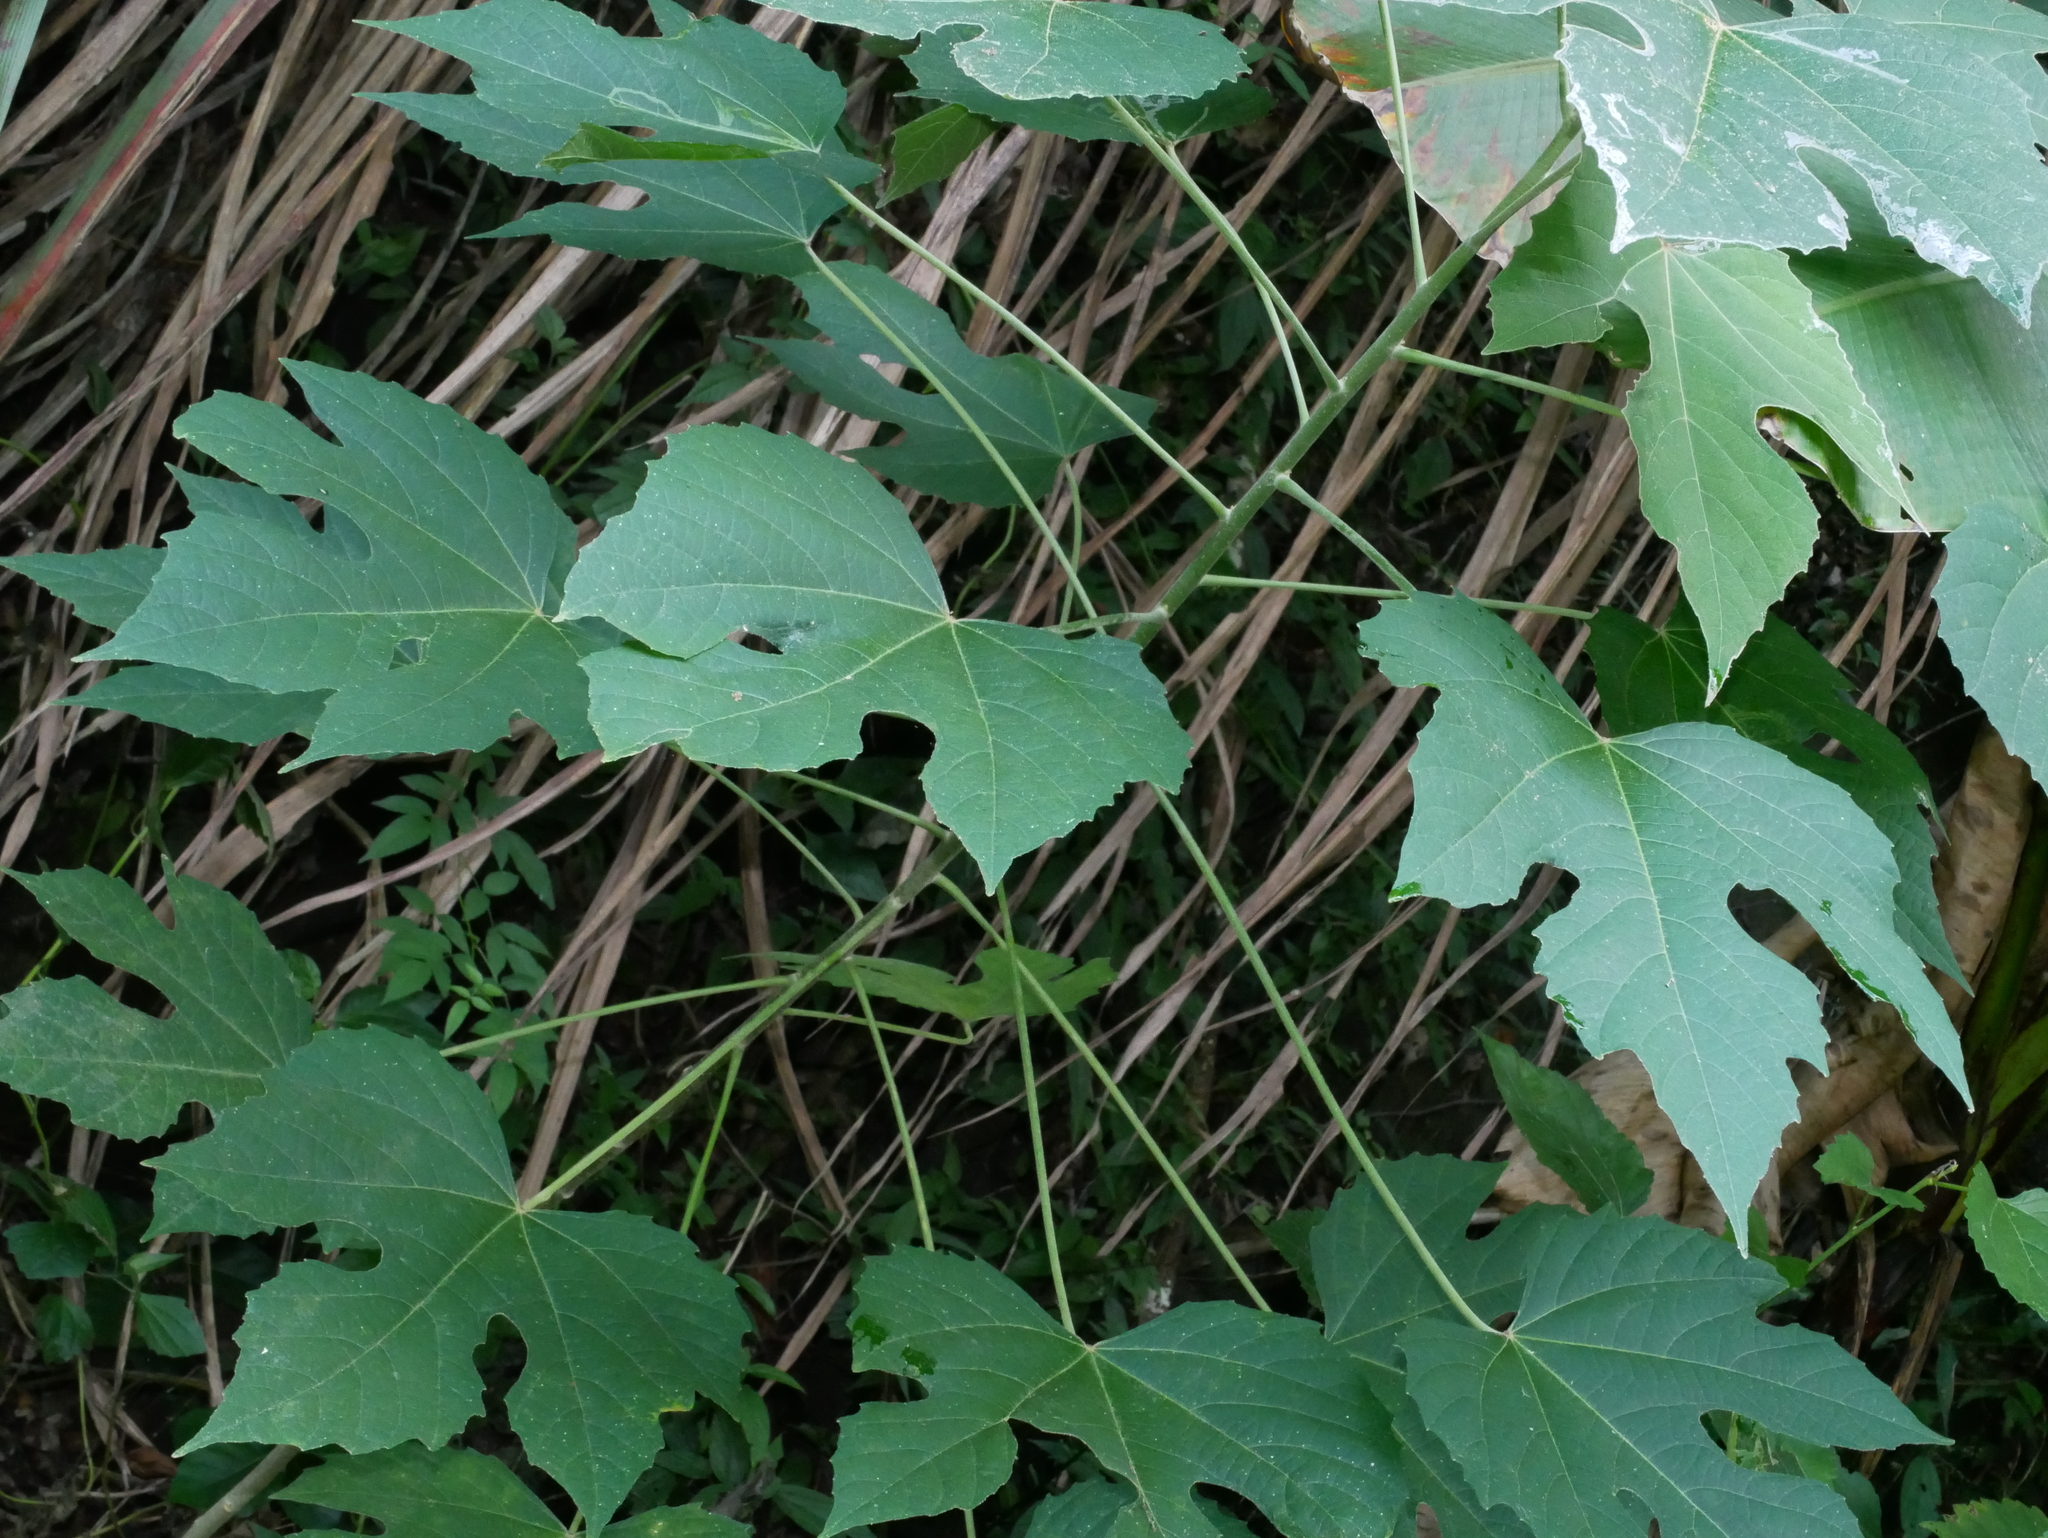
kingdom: Plantae
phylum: Tracheophyta
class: Magnoliopsida
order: Malpighiales
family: Euphorbiaceae
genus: Melanolepis
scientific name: Melanolepis multiglandulosa
